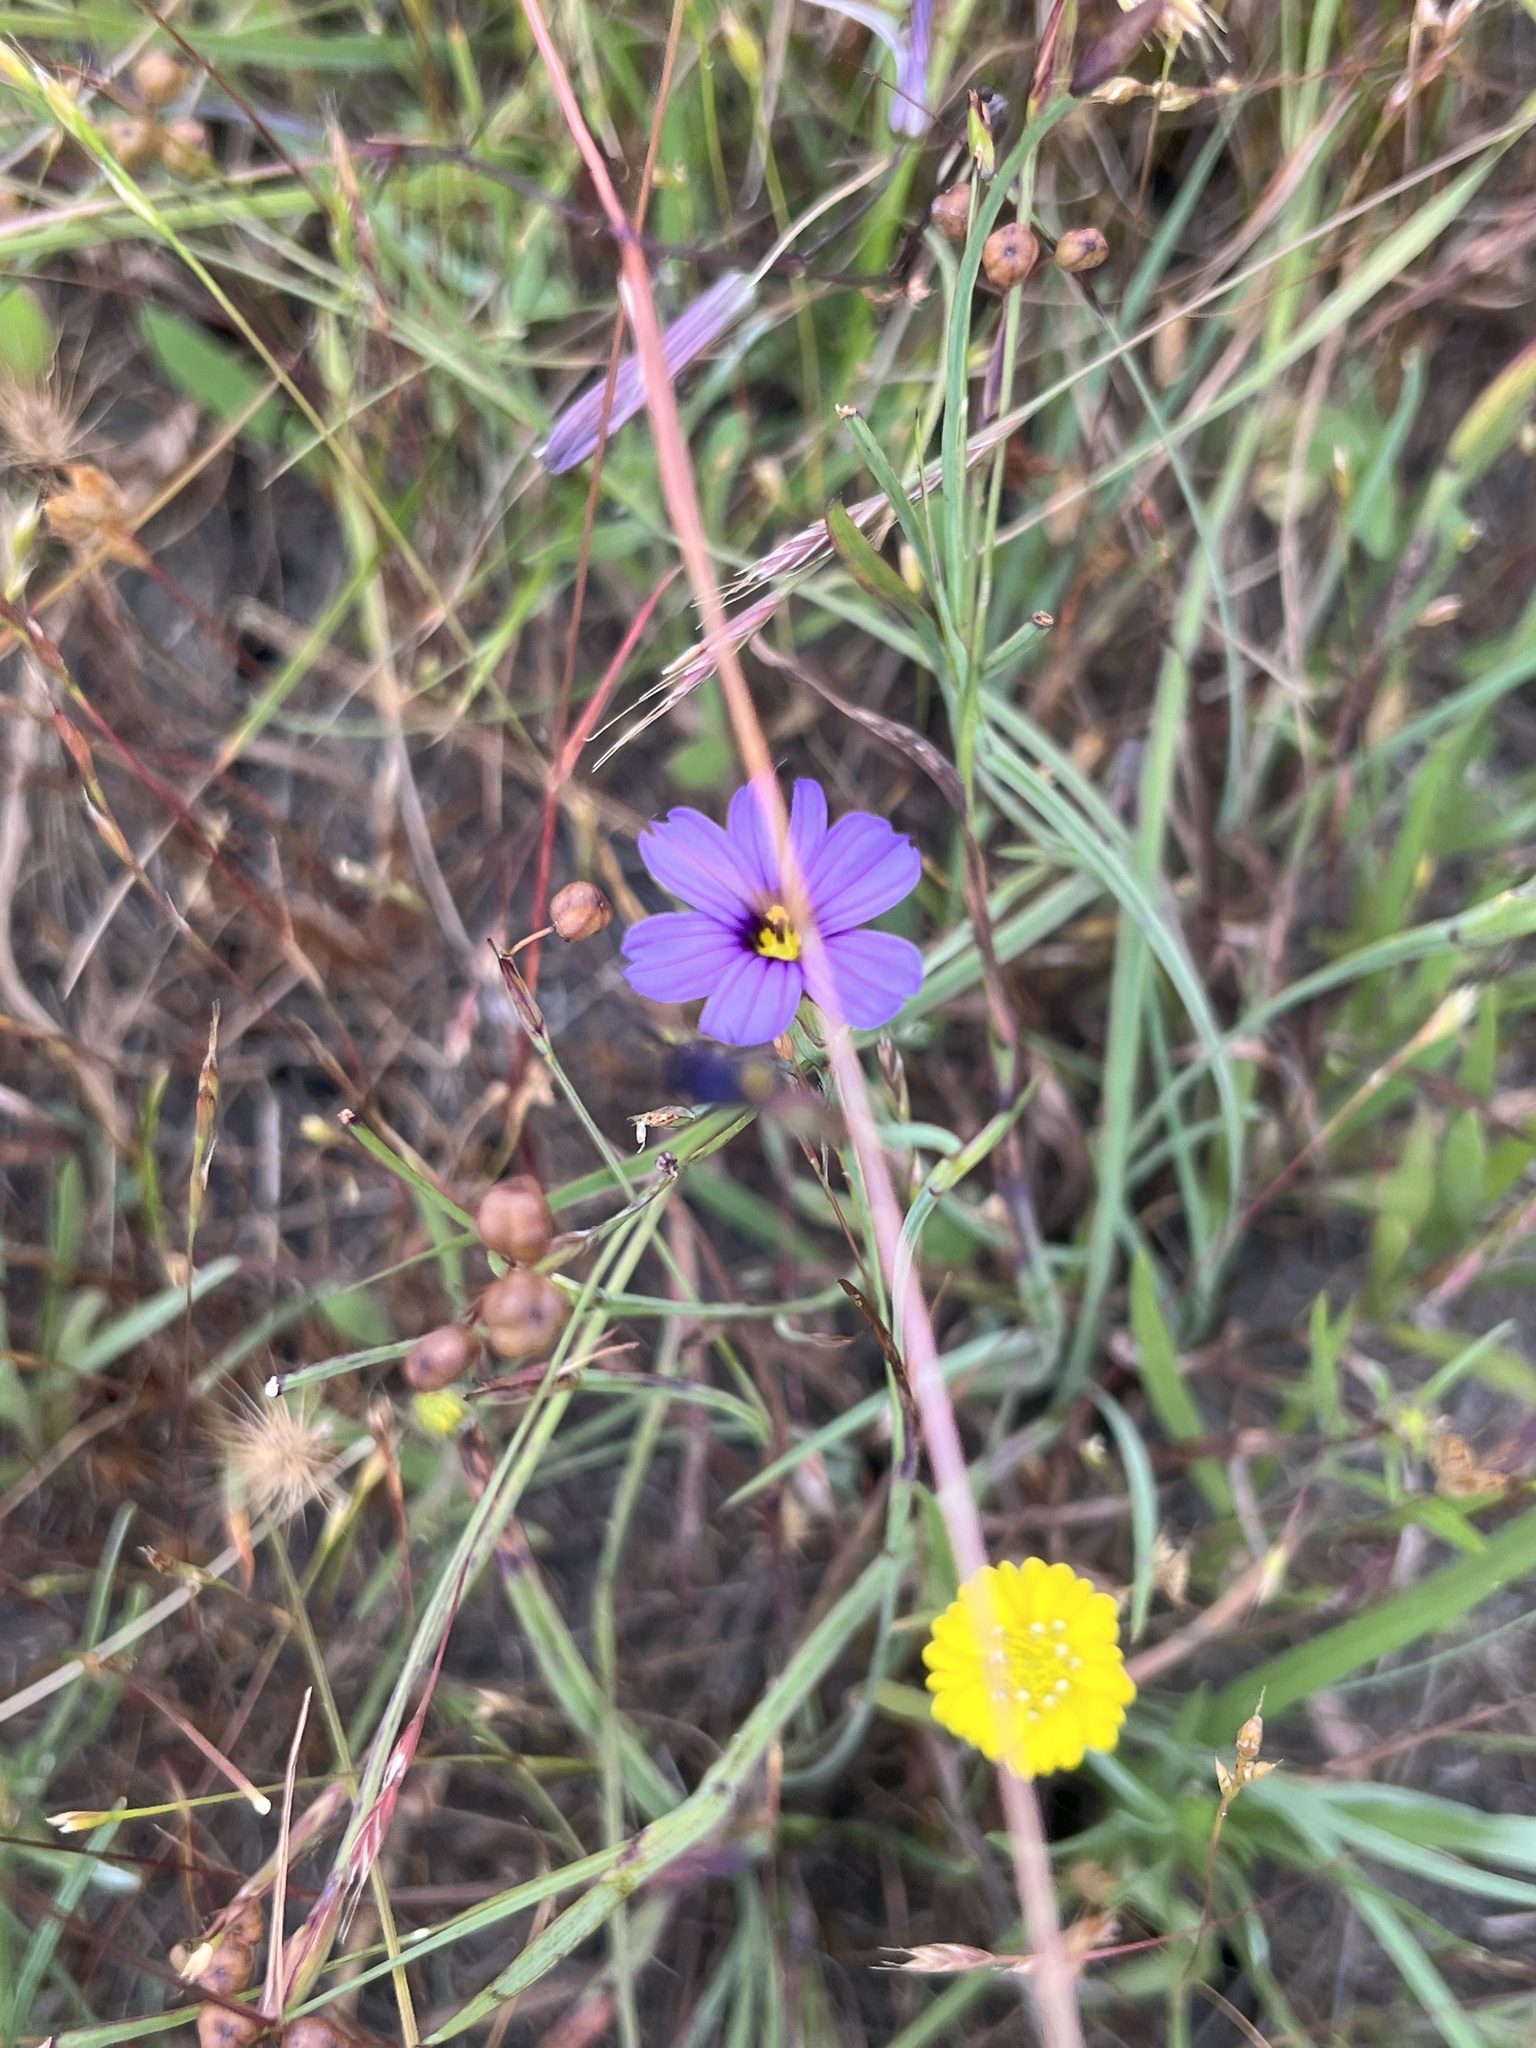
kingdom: Plantae
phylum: Tracheophyta
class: Liliopsida
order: Asparagales
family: Iridaceae
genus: Sisyrinchium
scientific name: Sisyrinchium bellum
